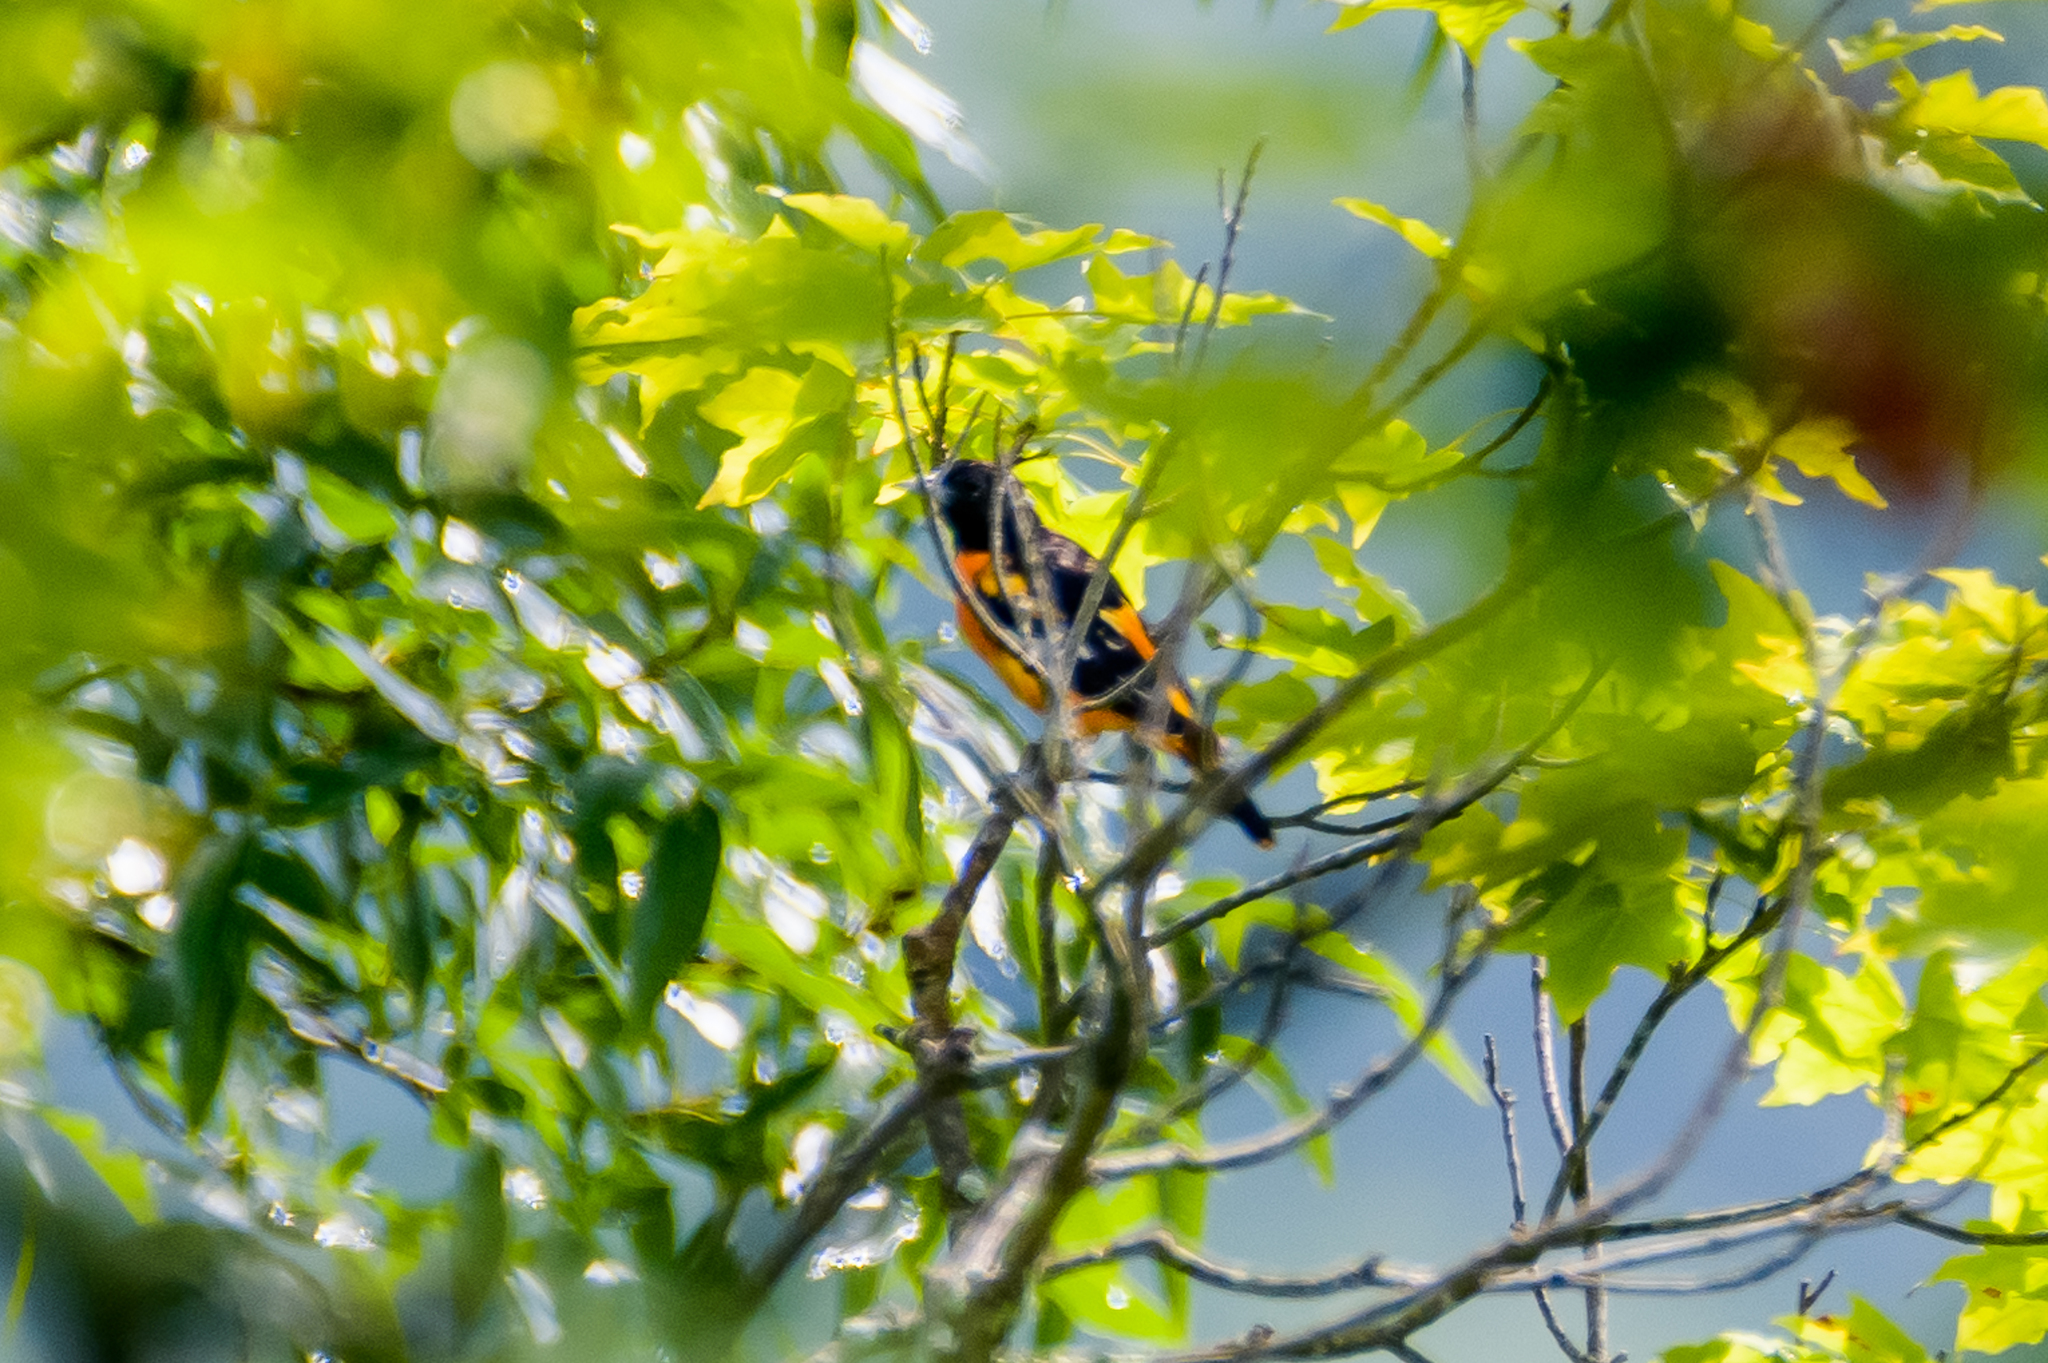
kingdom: Animalia
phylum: Chordata
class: Aves
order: Passeriformes
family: Icteridae
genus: Icterus
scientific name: Icterus galbula
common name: Baltimore oriole
